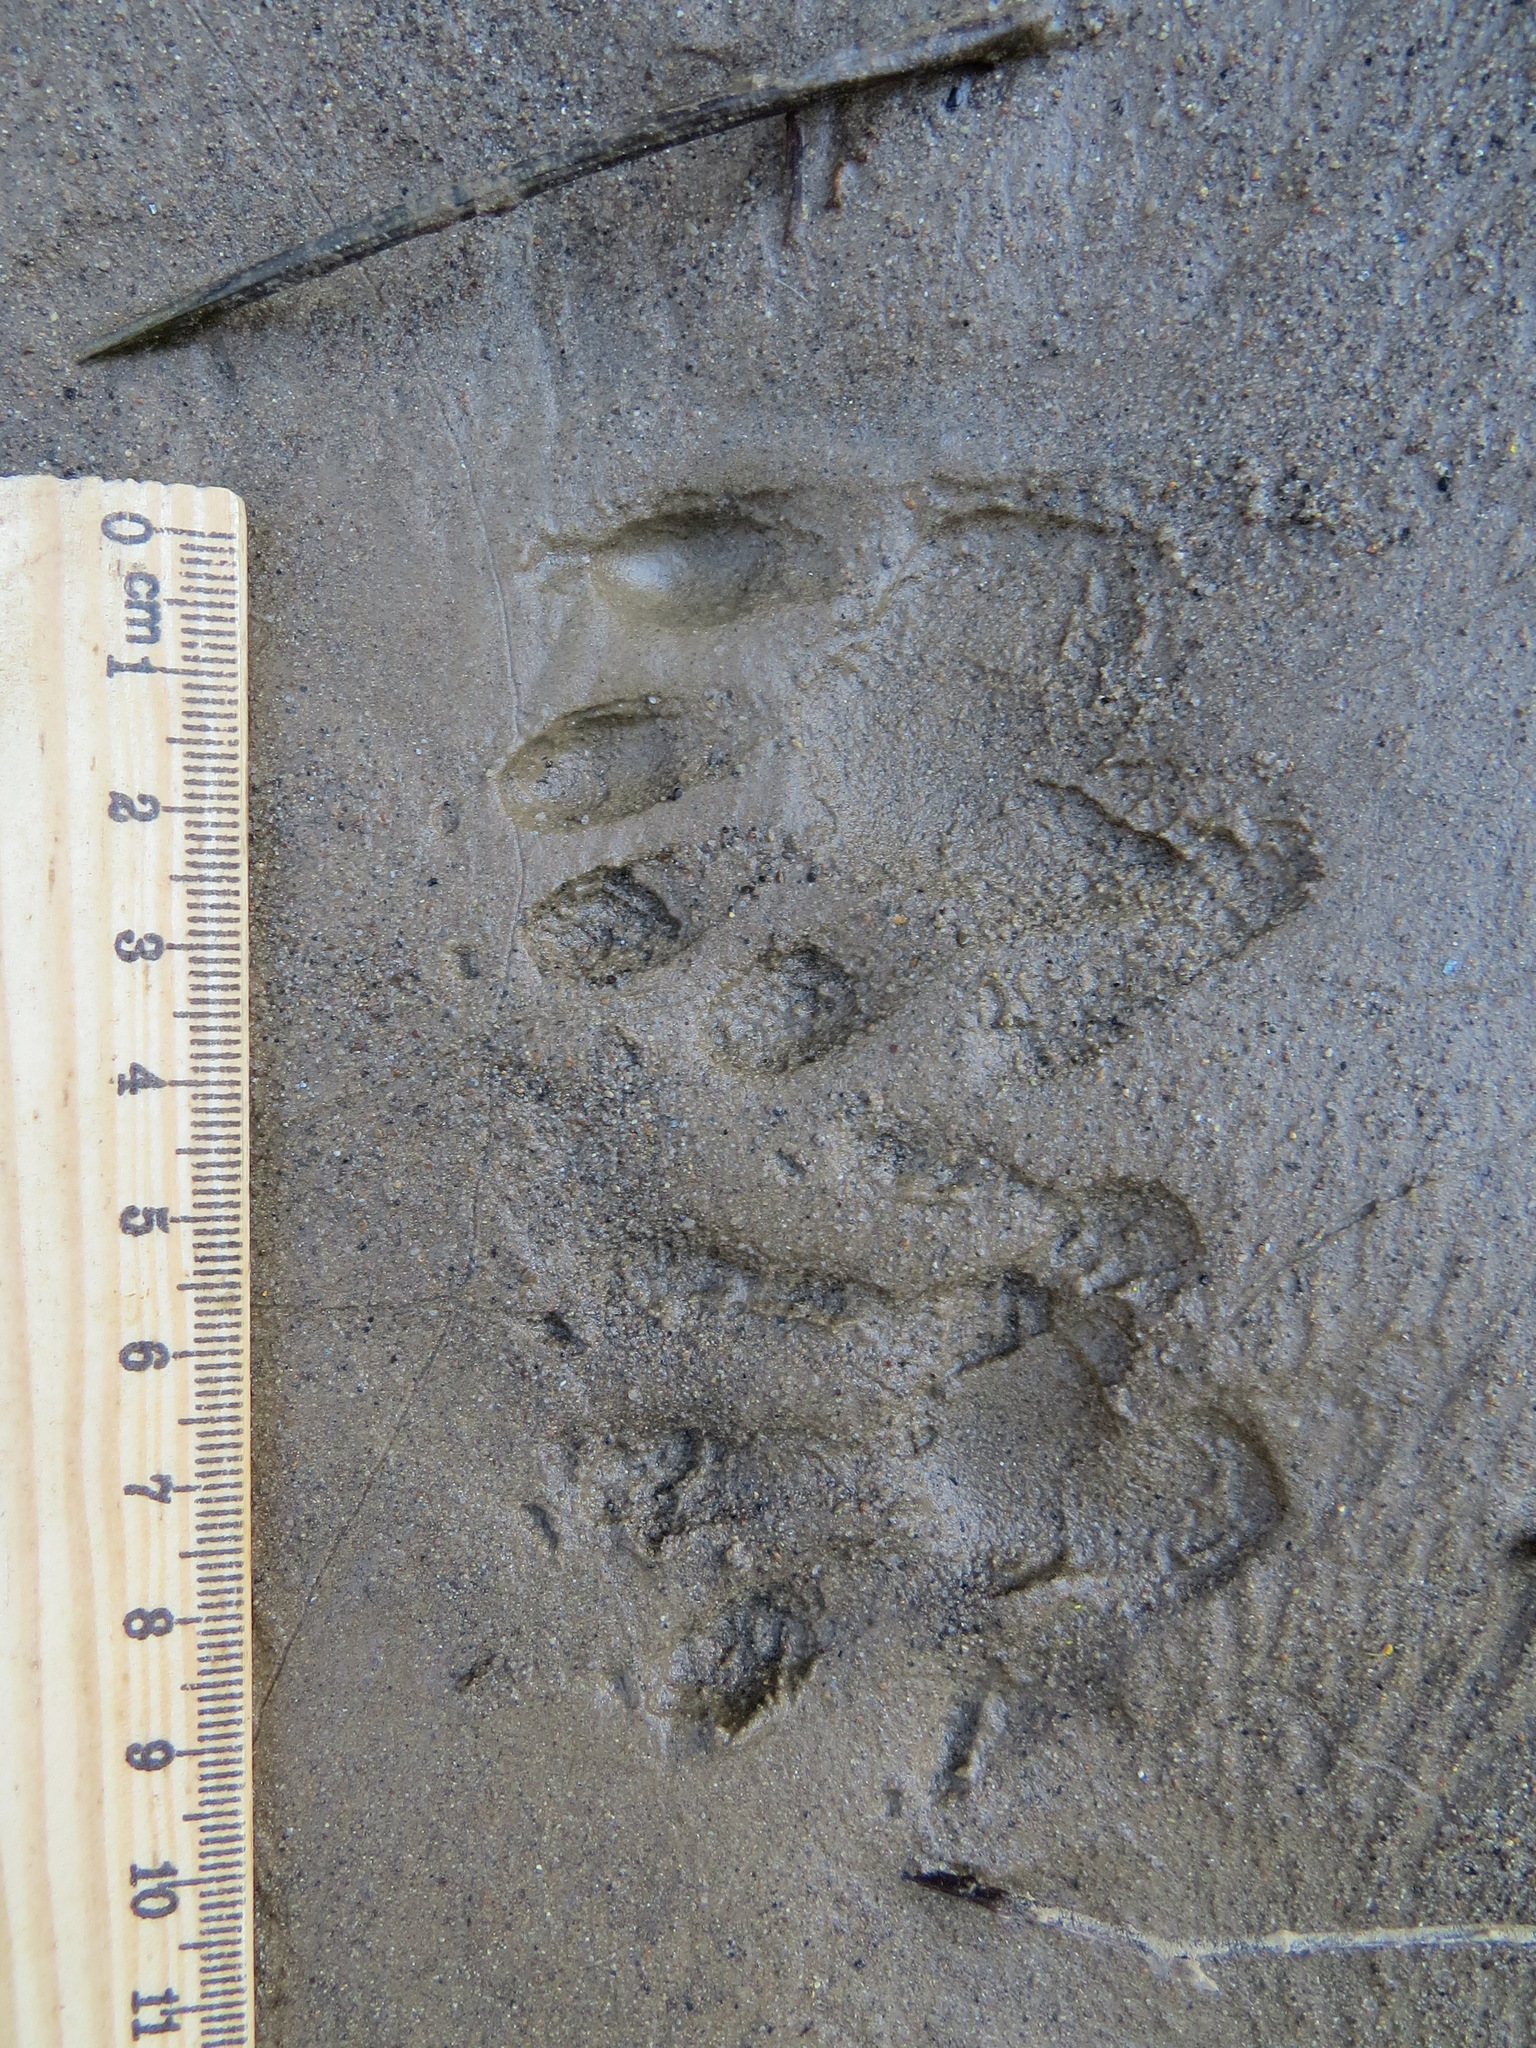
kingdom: Animalia
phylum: Chordata
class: Mammalia
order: Carnivora
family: Procyonidae
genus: Procyon
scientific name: Procyon lotor
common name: Raccoon
